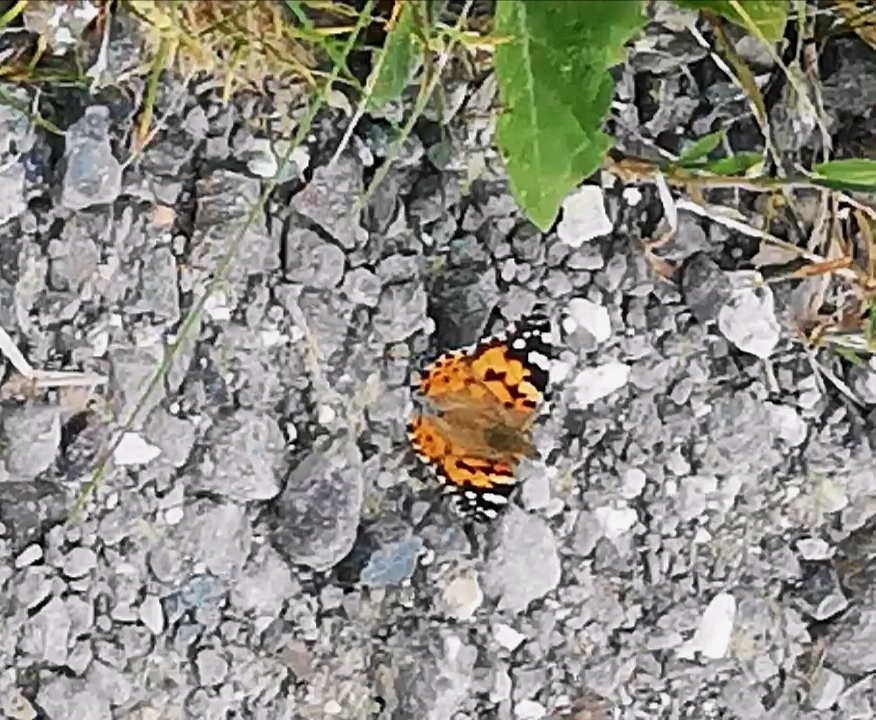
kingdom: Animalia
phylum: Arthropoda
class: Insecta
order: Lepidoptera
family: Nymphalidae
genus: Vanessa
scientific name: Vanessa cardui
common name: Painted lady
